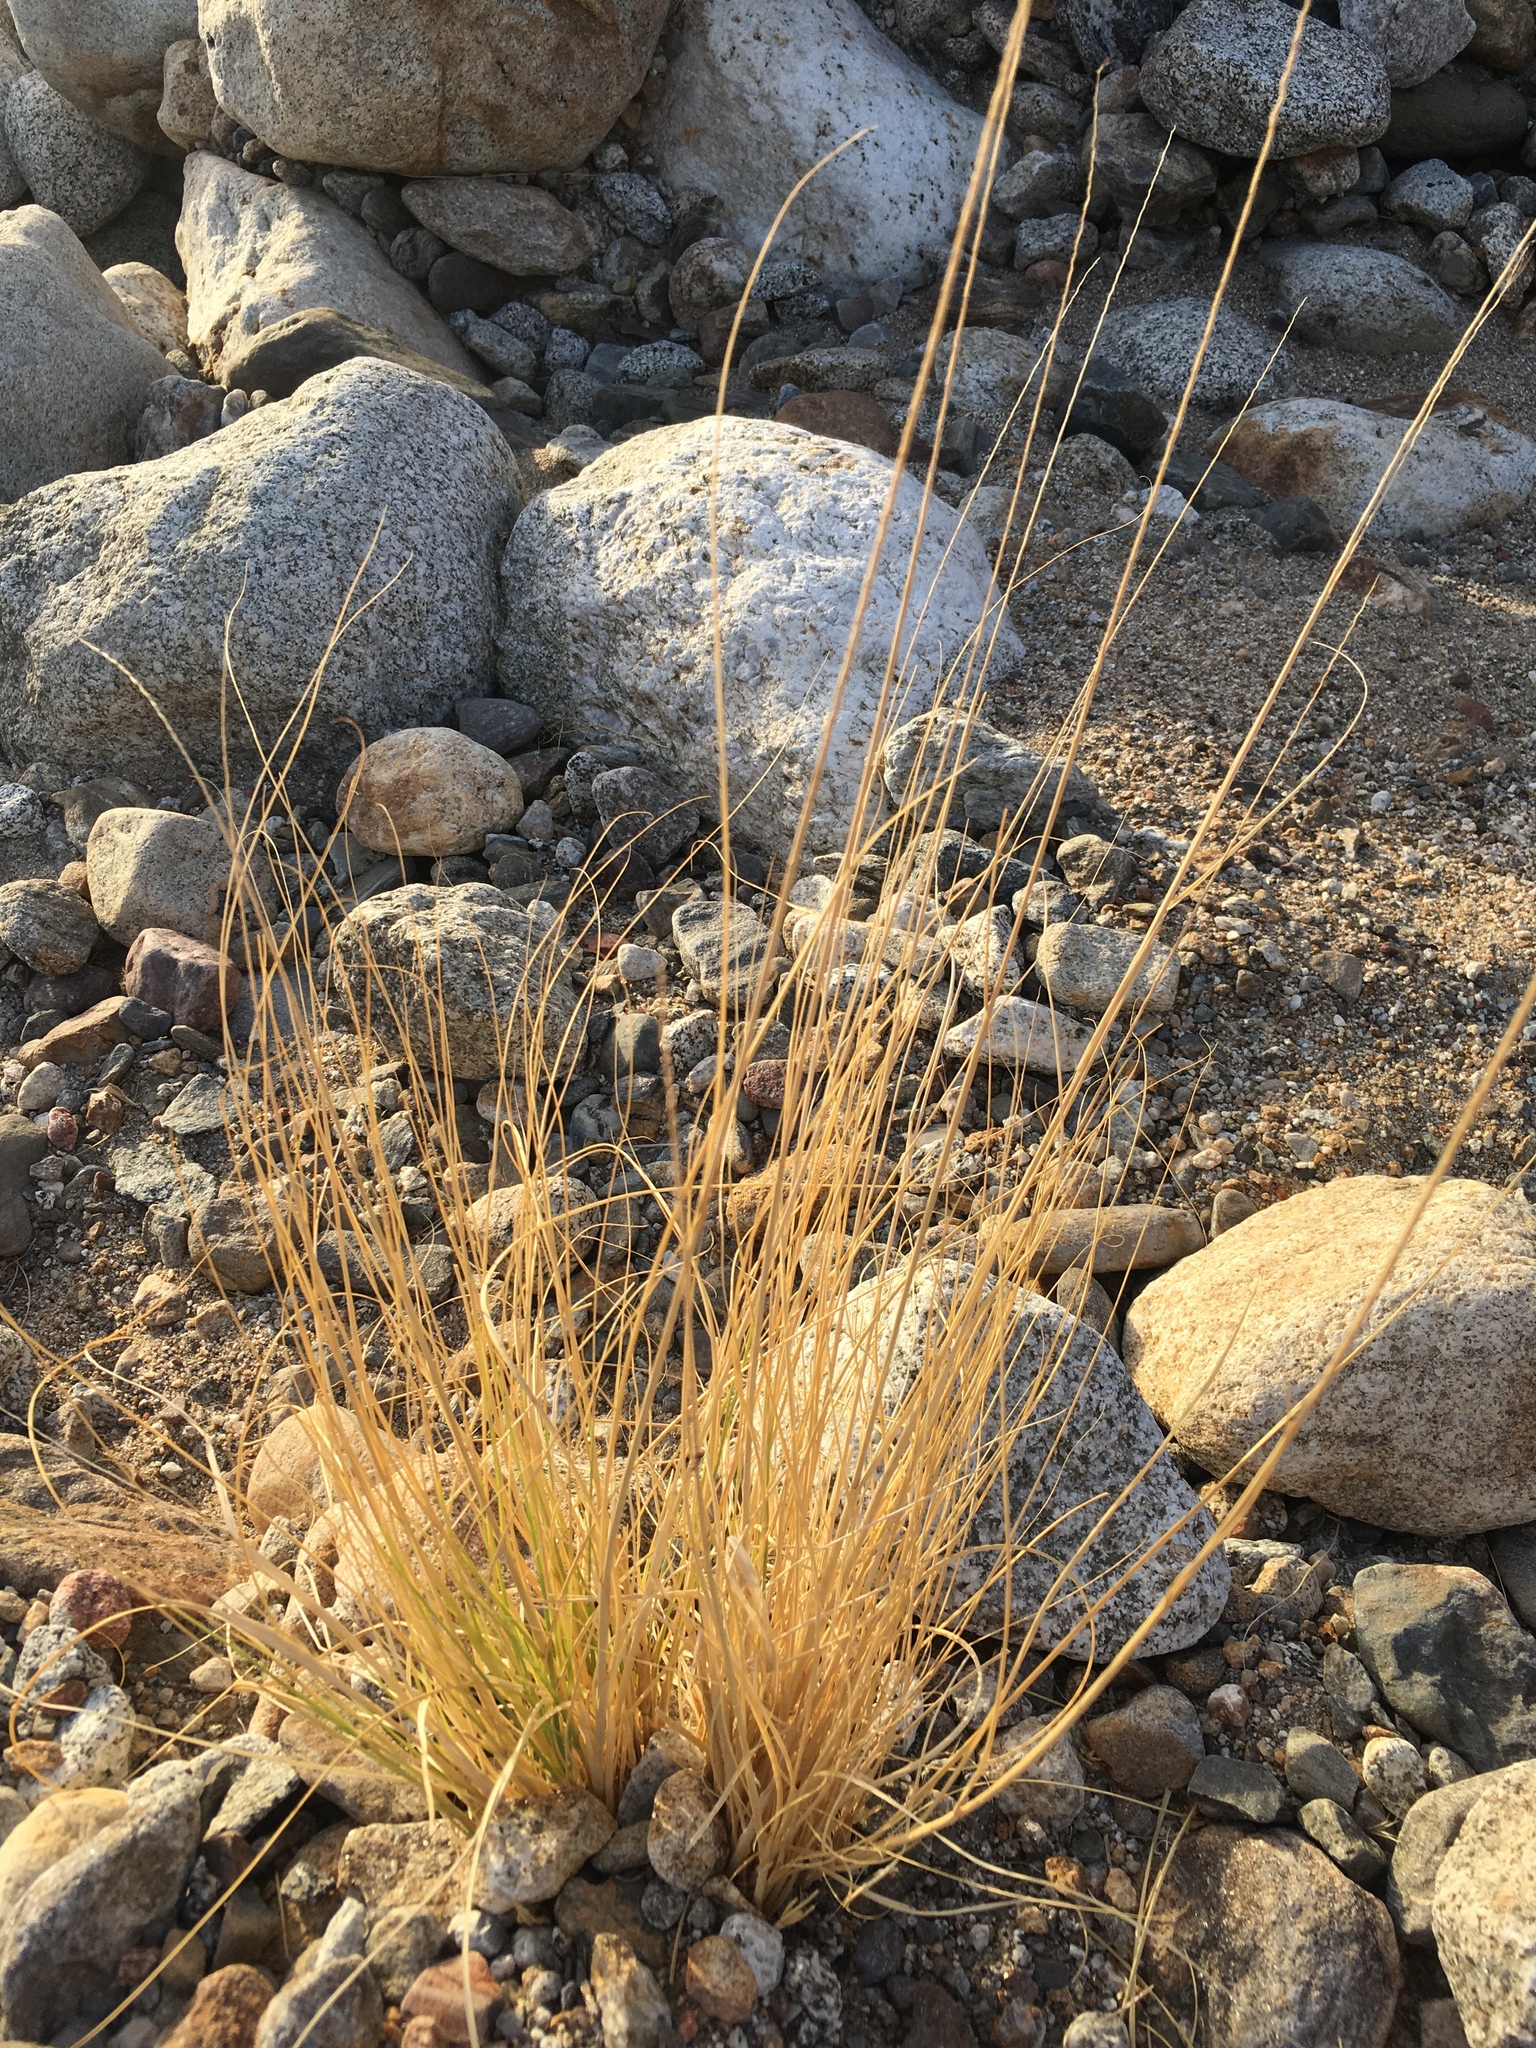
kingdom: Plantae
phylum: Tracheophyta
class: Liliopsida
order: Poales
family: Poaceae
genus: Hilaria
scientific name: Hilaria rigida
